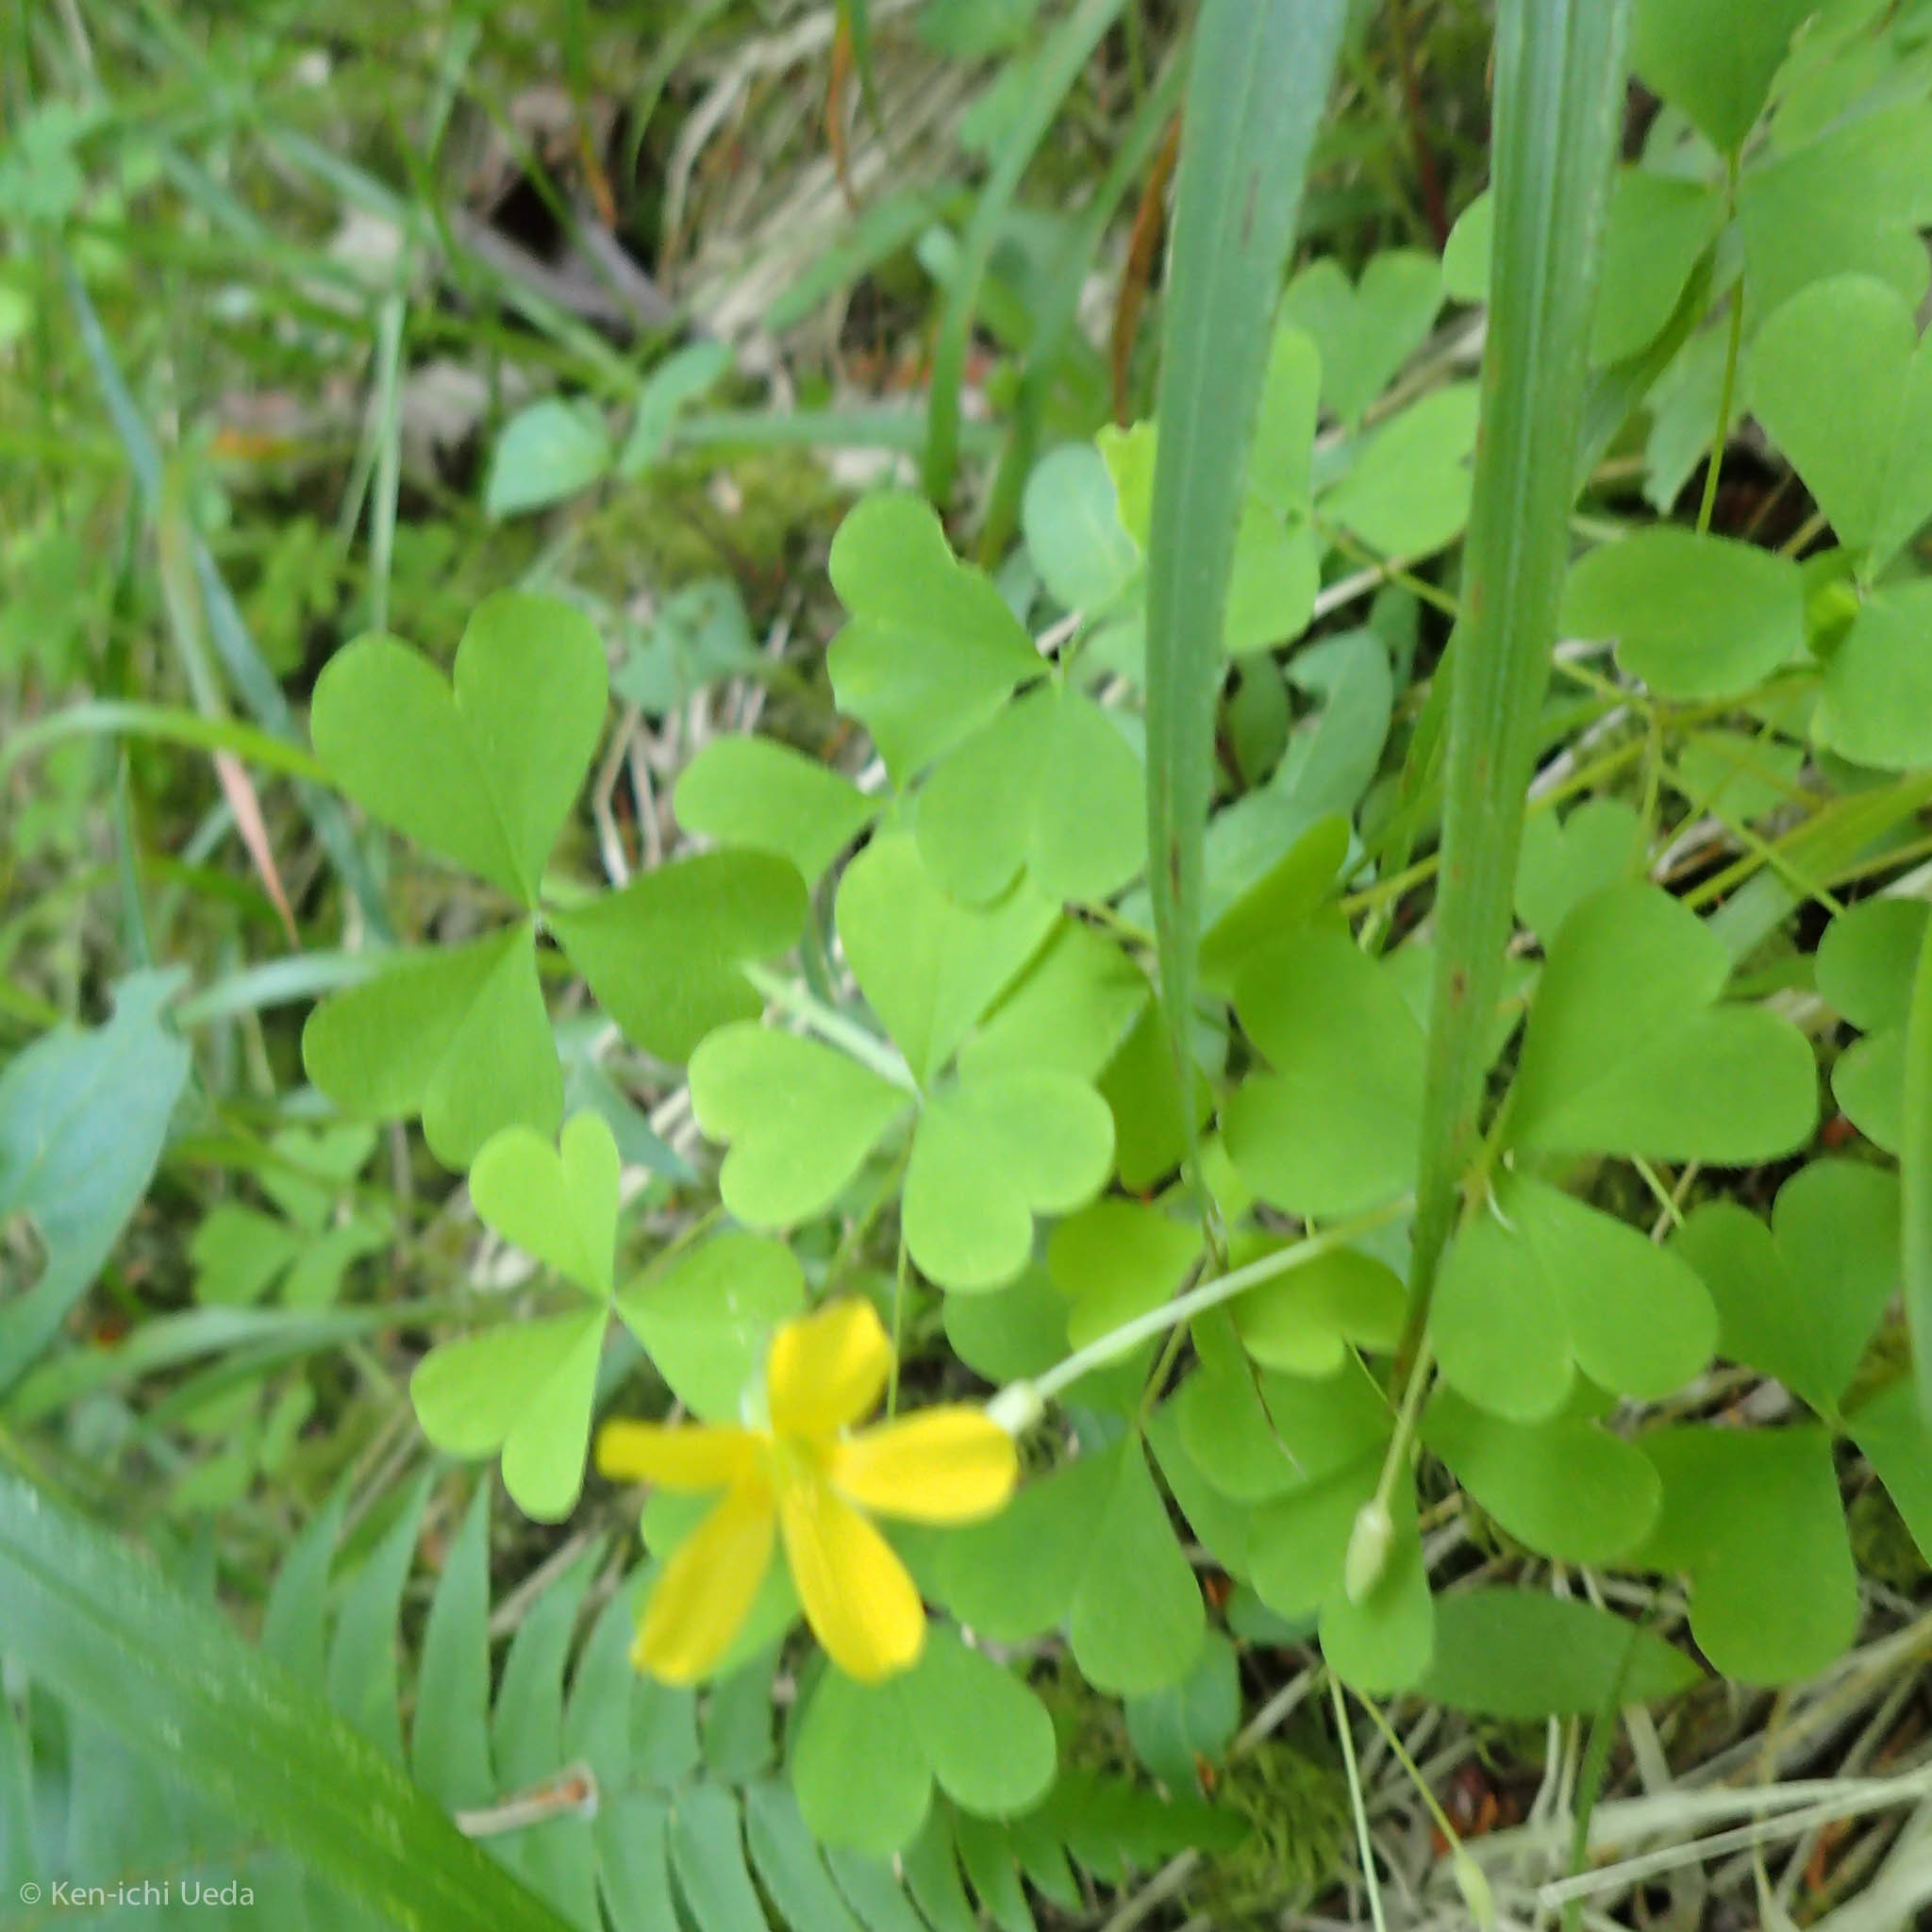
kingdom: Plantae
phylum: Tracheophyta
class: Magnoliopsida
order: Oxalidales
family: Oxalidaceae
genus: Oxalis
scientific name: Oxalis suksdorfii
